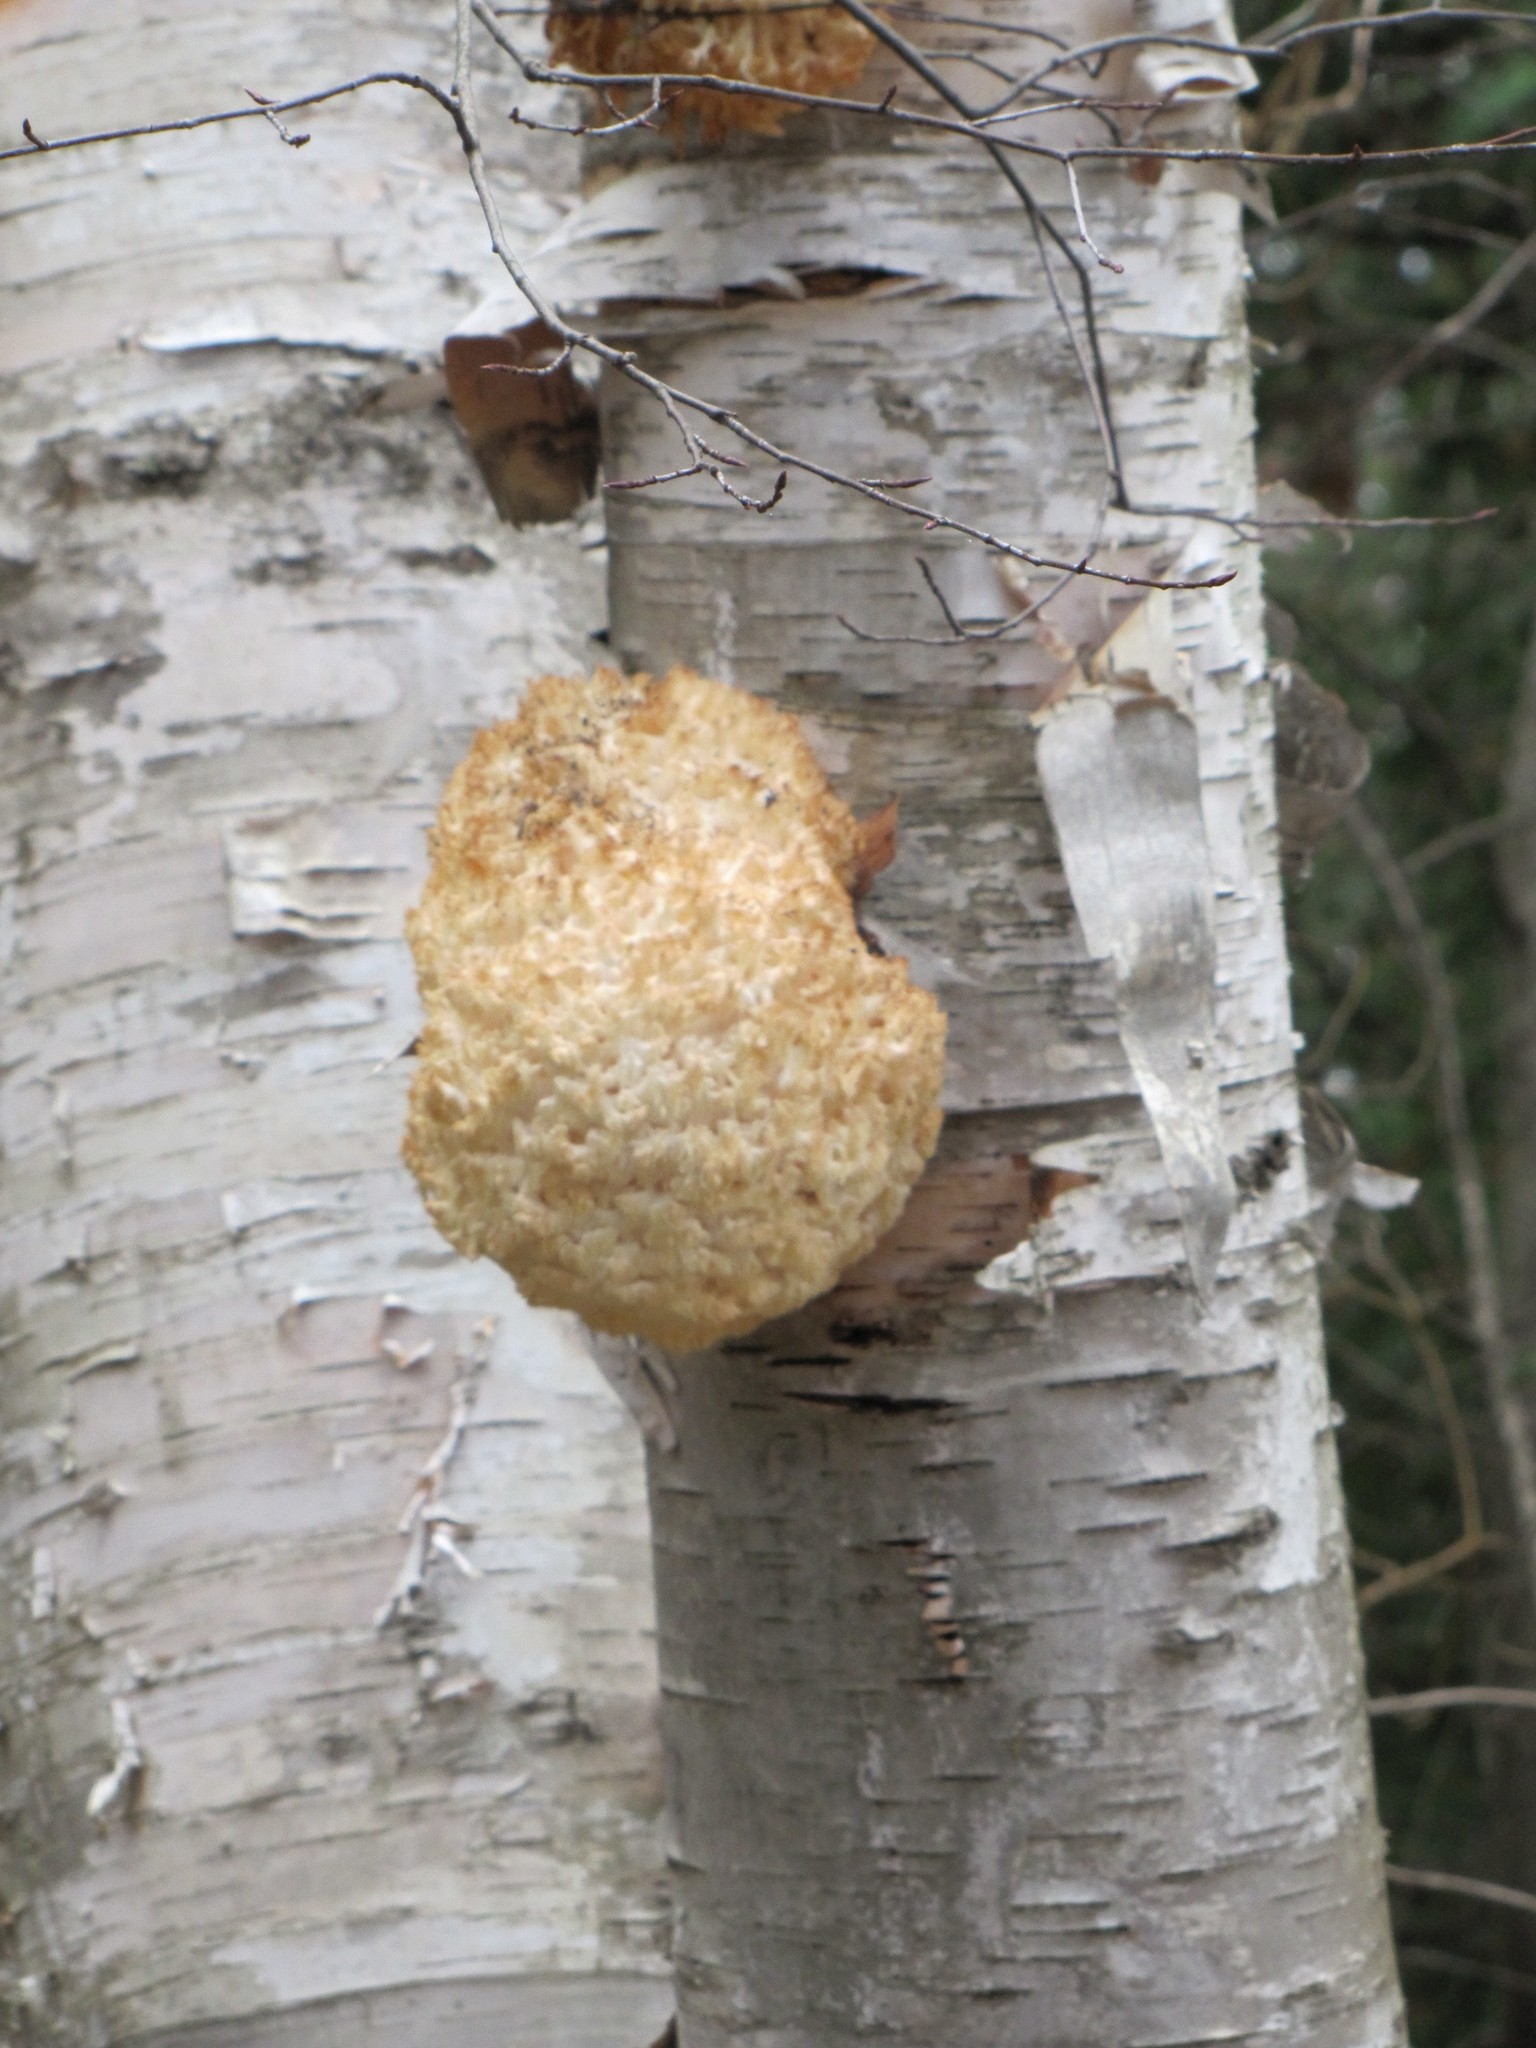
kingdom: Fungi
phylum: Basidiomycota
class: Agaricomycetes
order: Russulales
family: Hericiaceae
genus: Hericium
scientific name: Hericium coralloides
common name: Coral tooth
